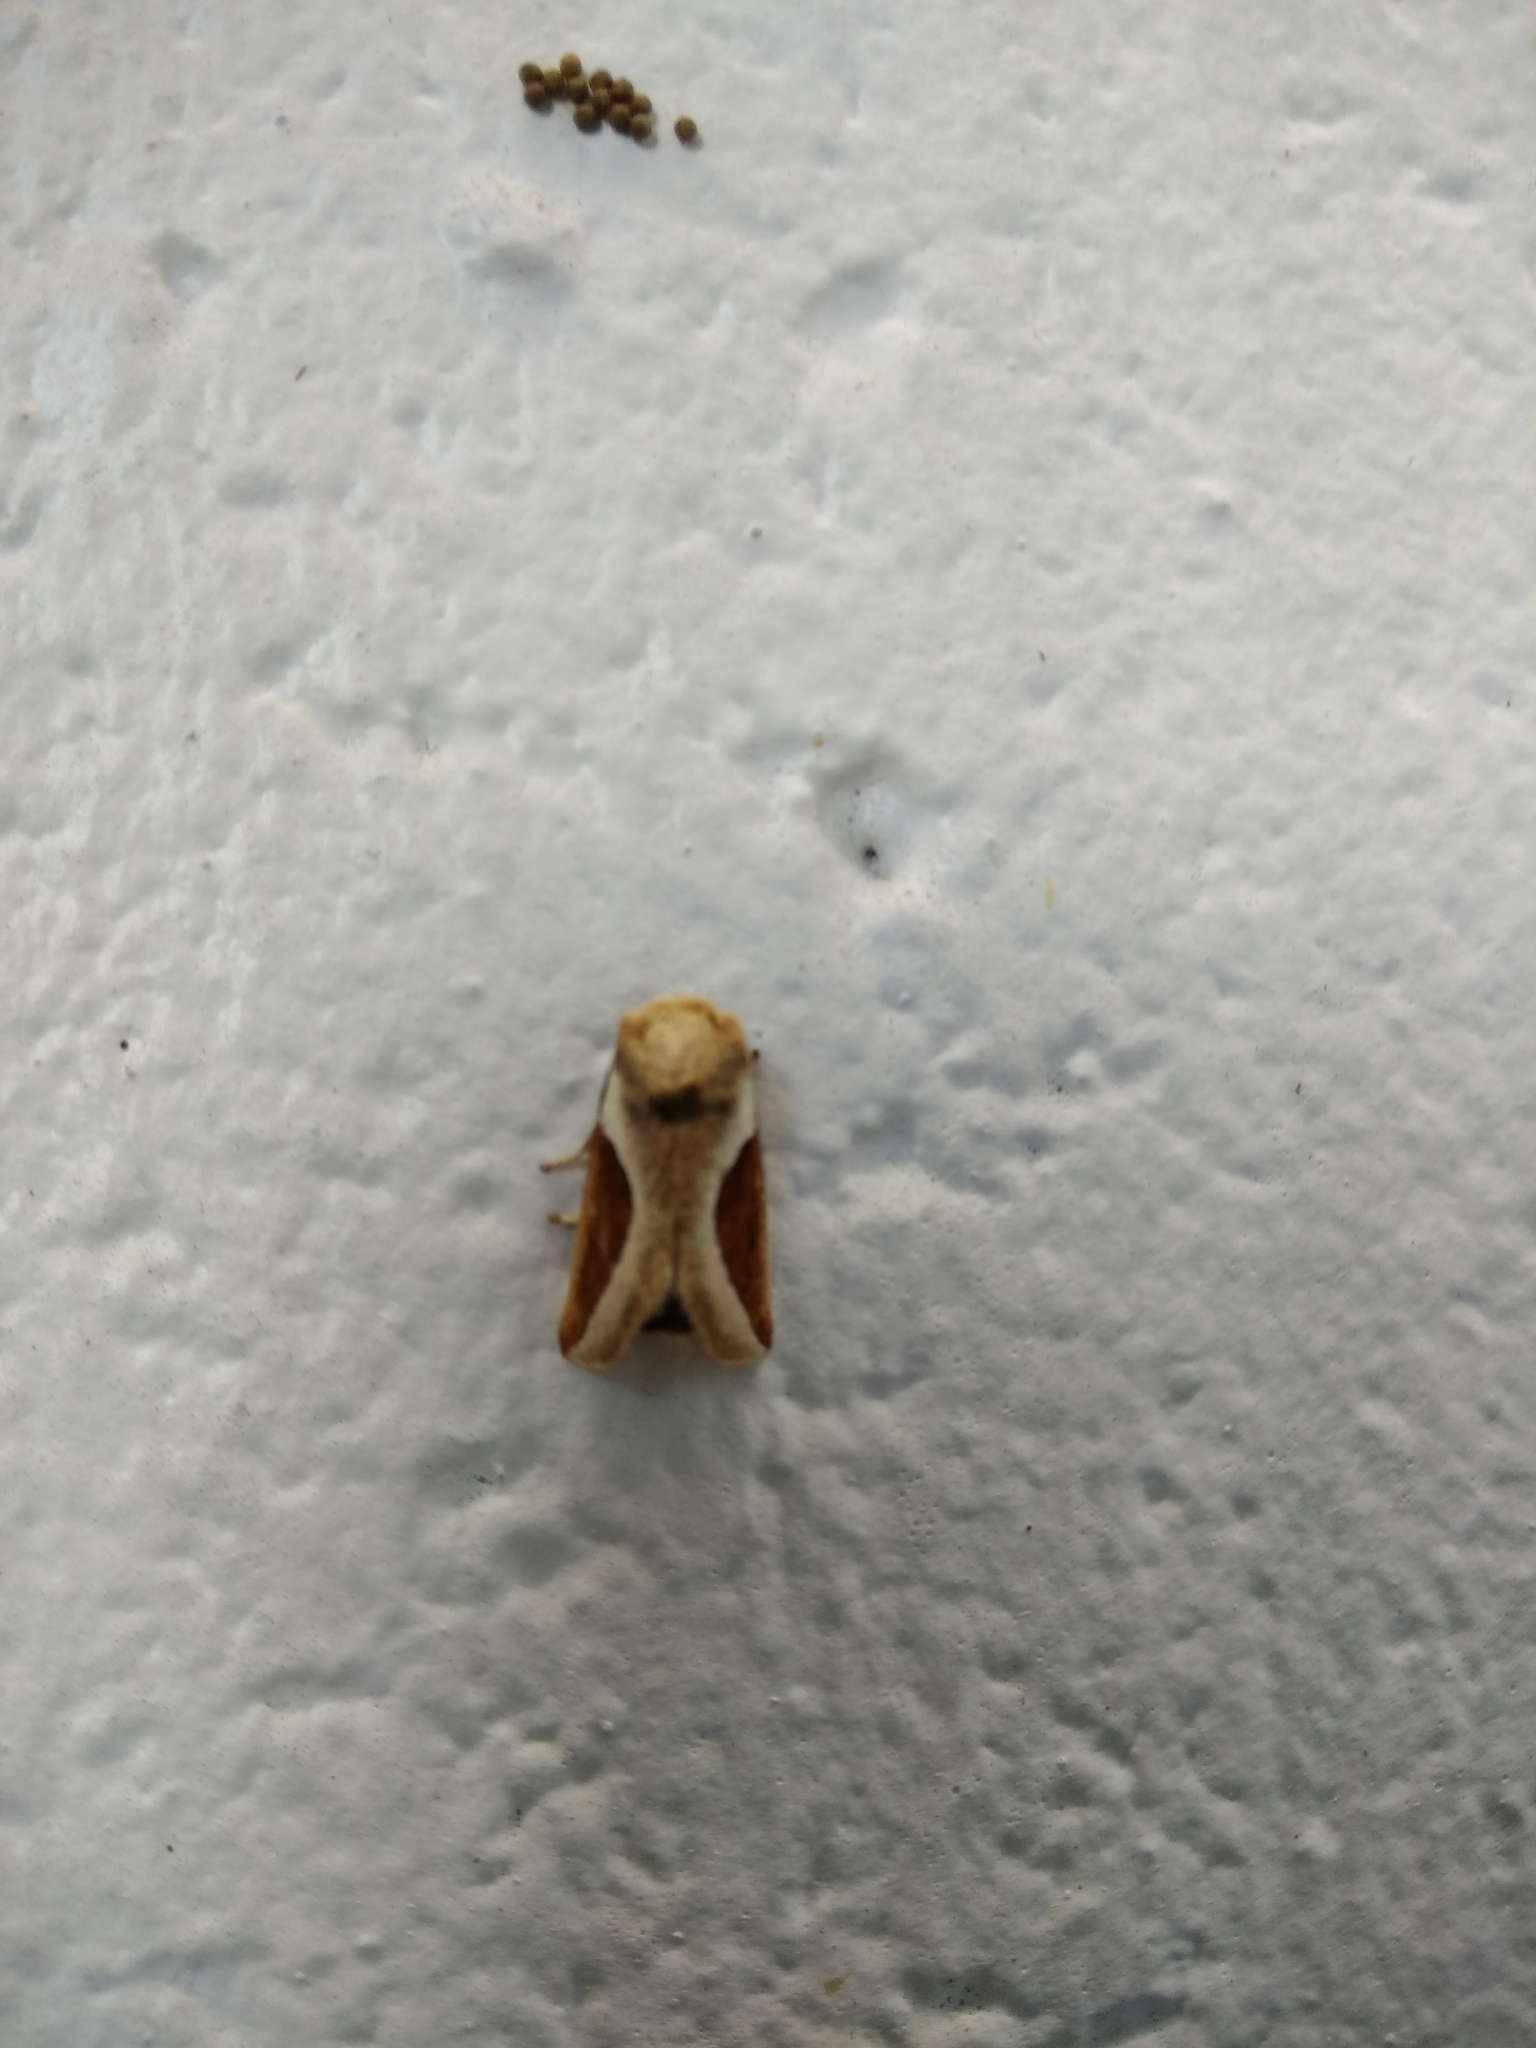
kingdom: Animalia
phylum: Arthropoda
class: Insecta
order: Lepidoptera
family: Limacodidae
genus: Prolimacodes
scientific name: Prolimacodes badia
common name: Skiff moth
